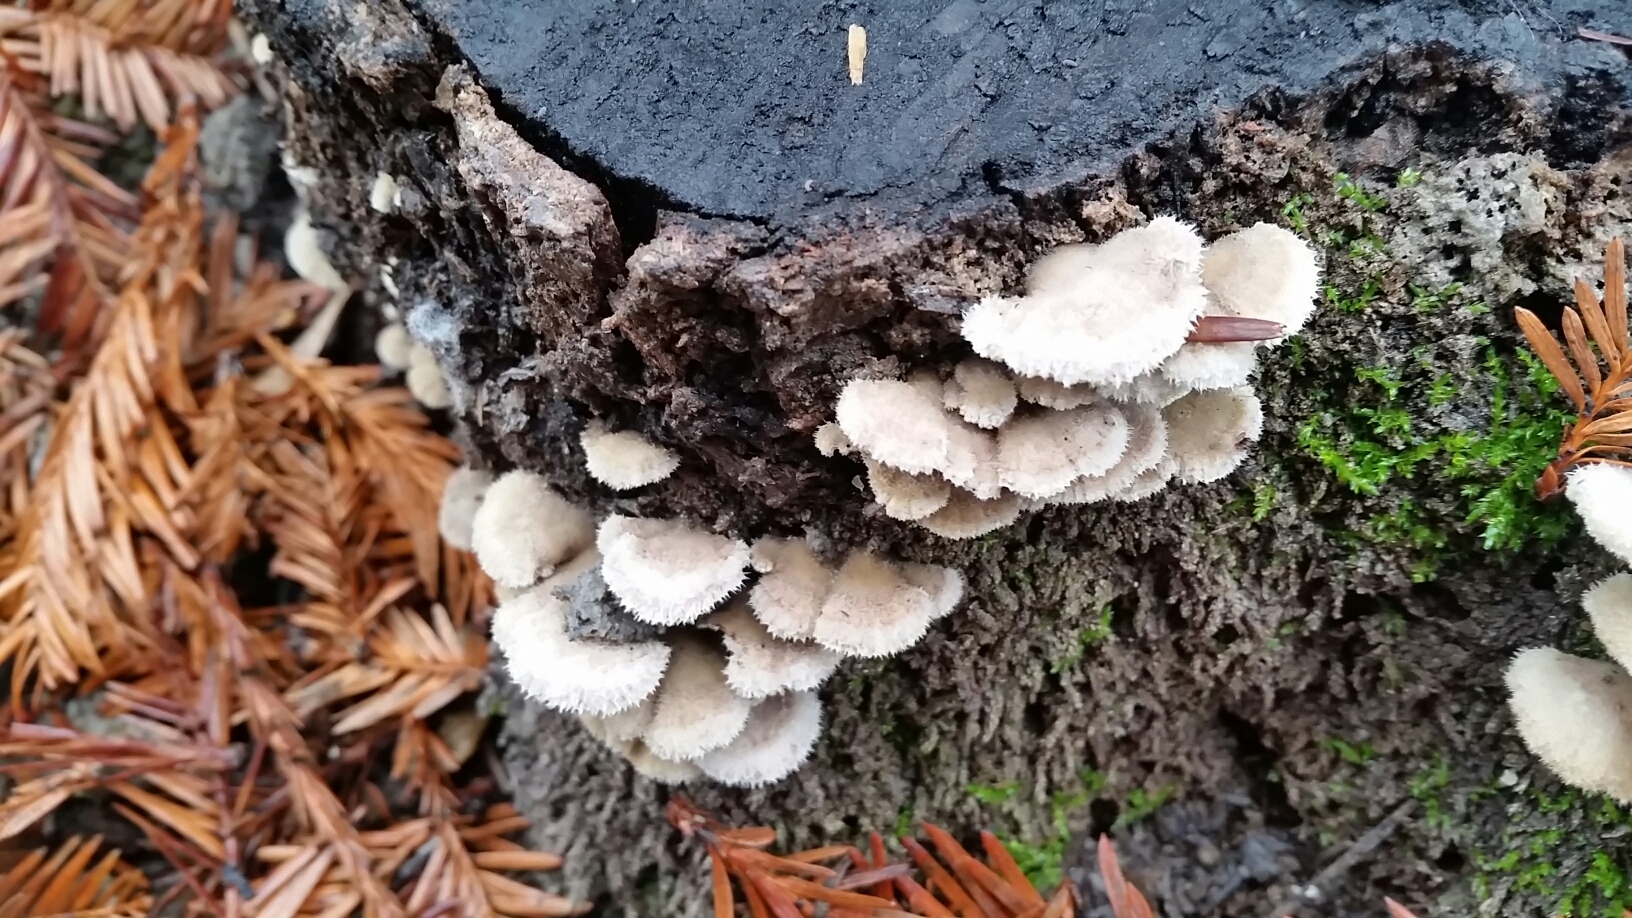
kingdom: Fungi
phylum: Basidiomycota
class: Agaricomycetes
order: Agaricales
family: Schizophyllaceae
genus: Schizophyllum
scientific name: Schizophyllum commune
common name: Common porecrust
